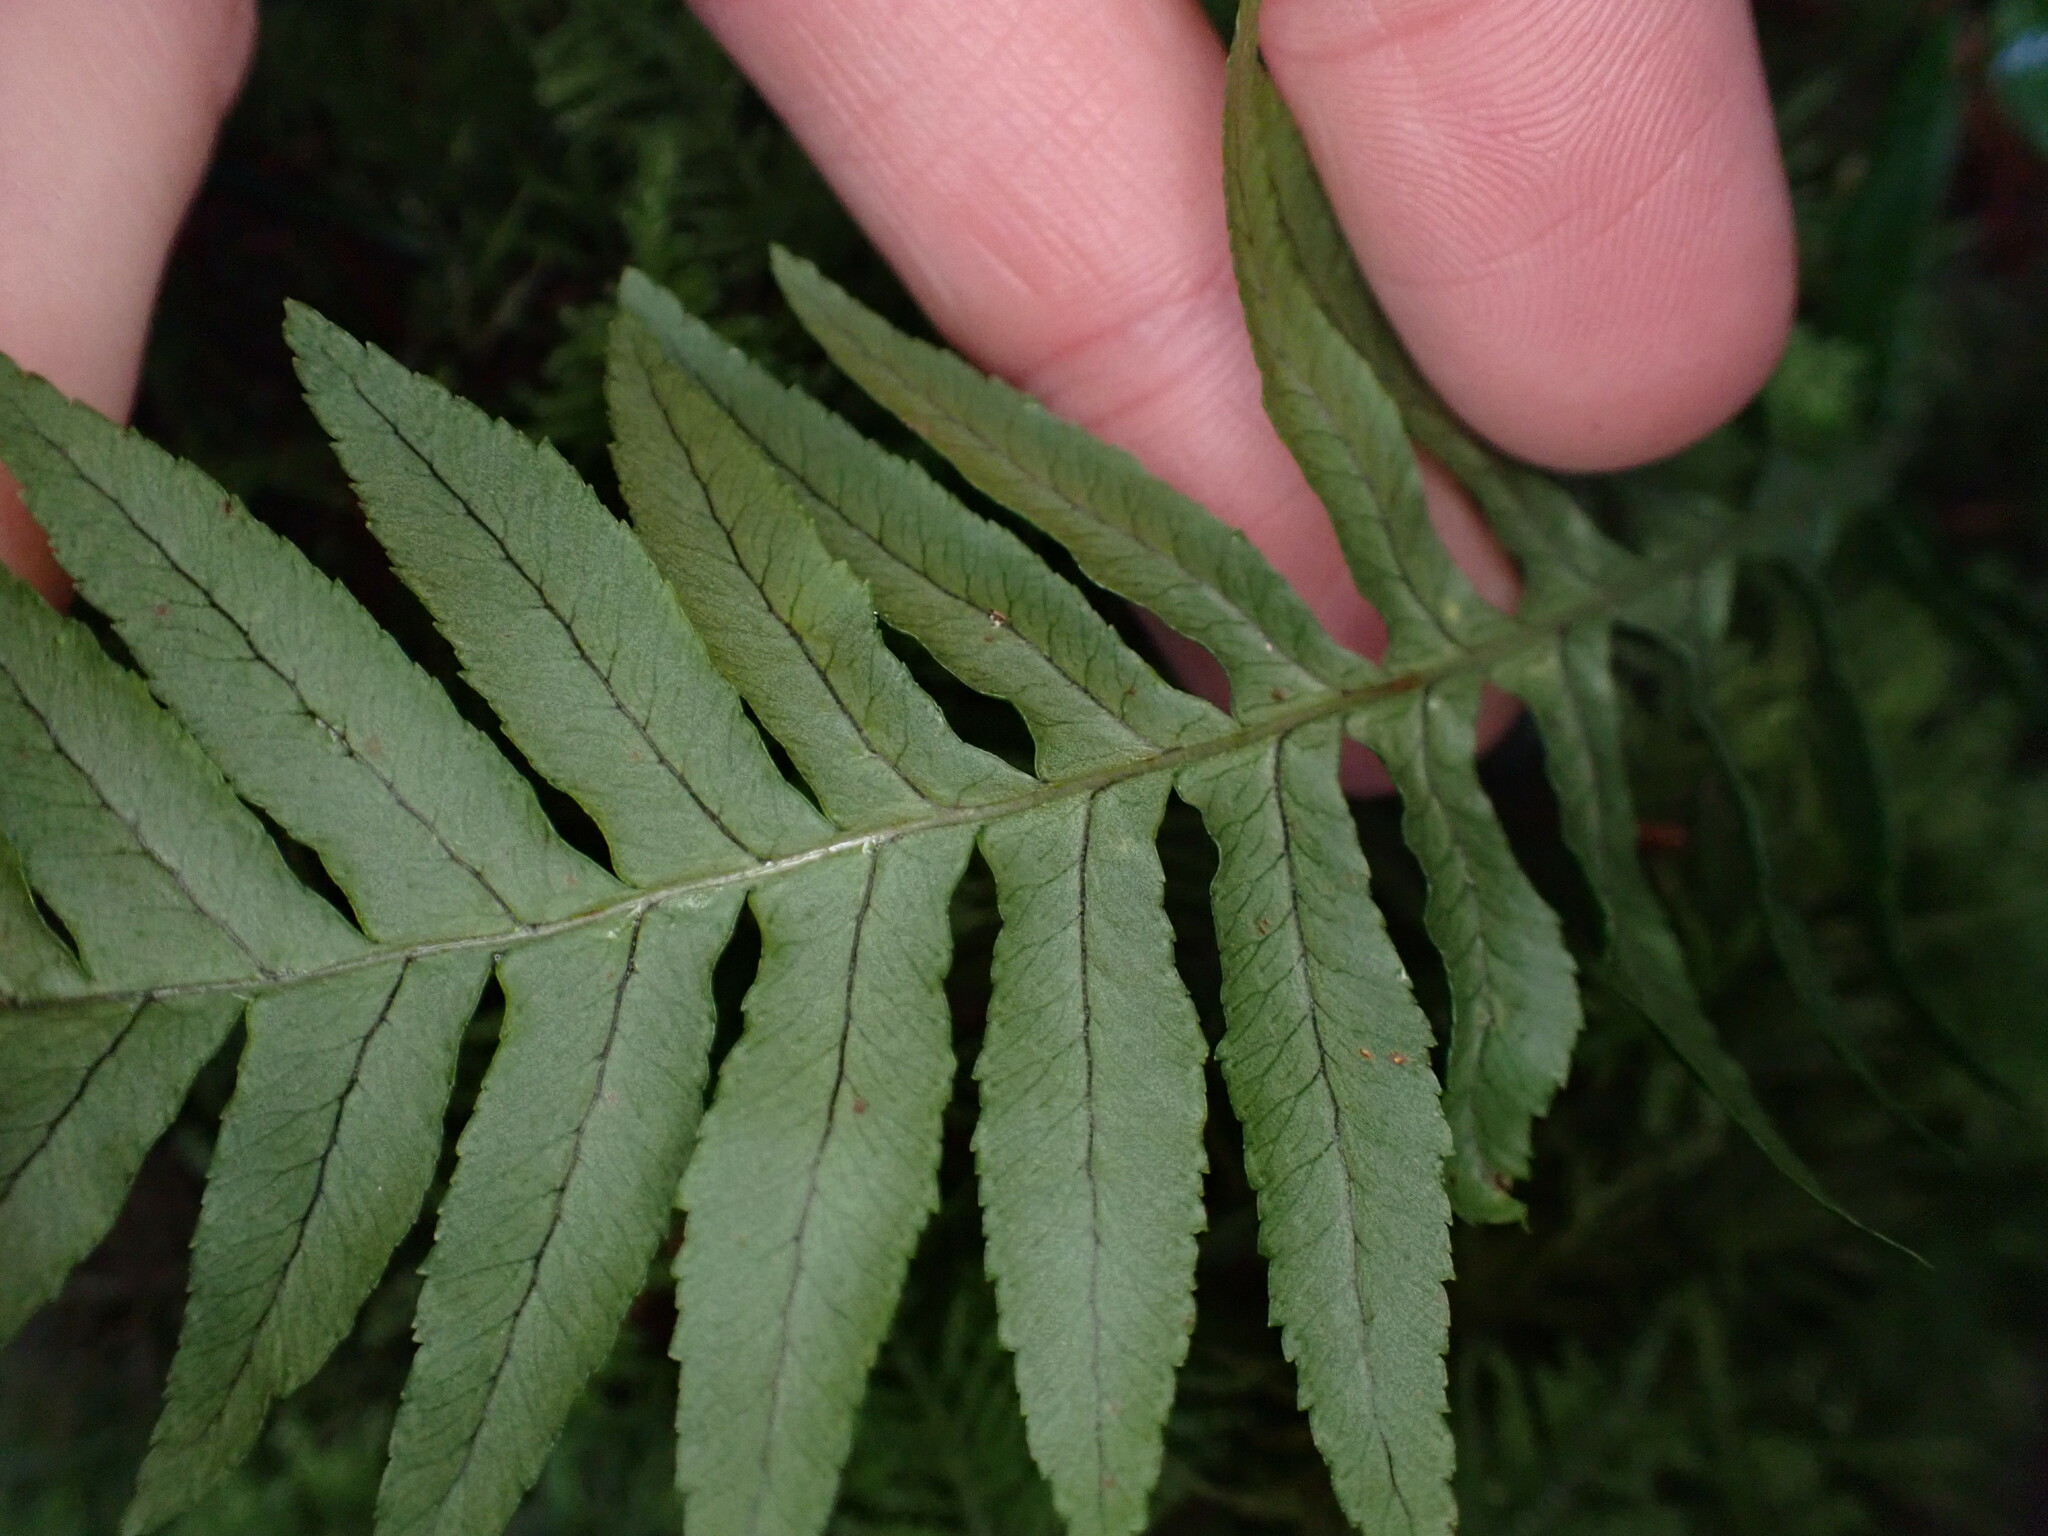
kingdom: Plantae
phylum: Tracheophyta
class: Polypodiopsida
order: Polypodiales
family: Polypodiaceae
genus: Polypodium
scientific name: Polypodium glycyrrhiza
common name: Licorice fern
